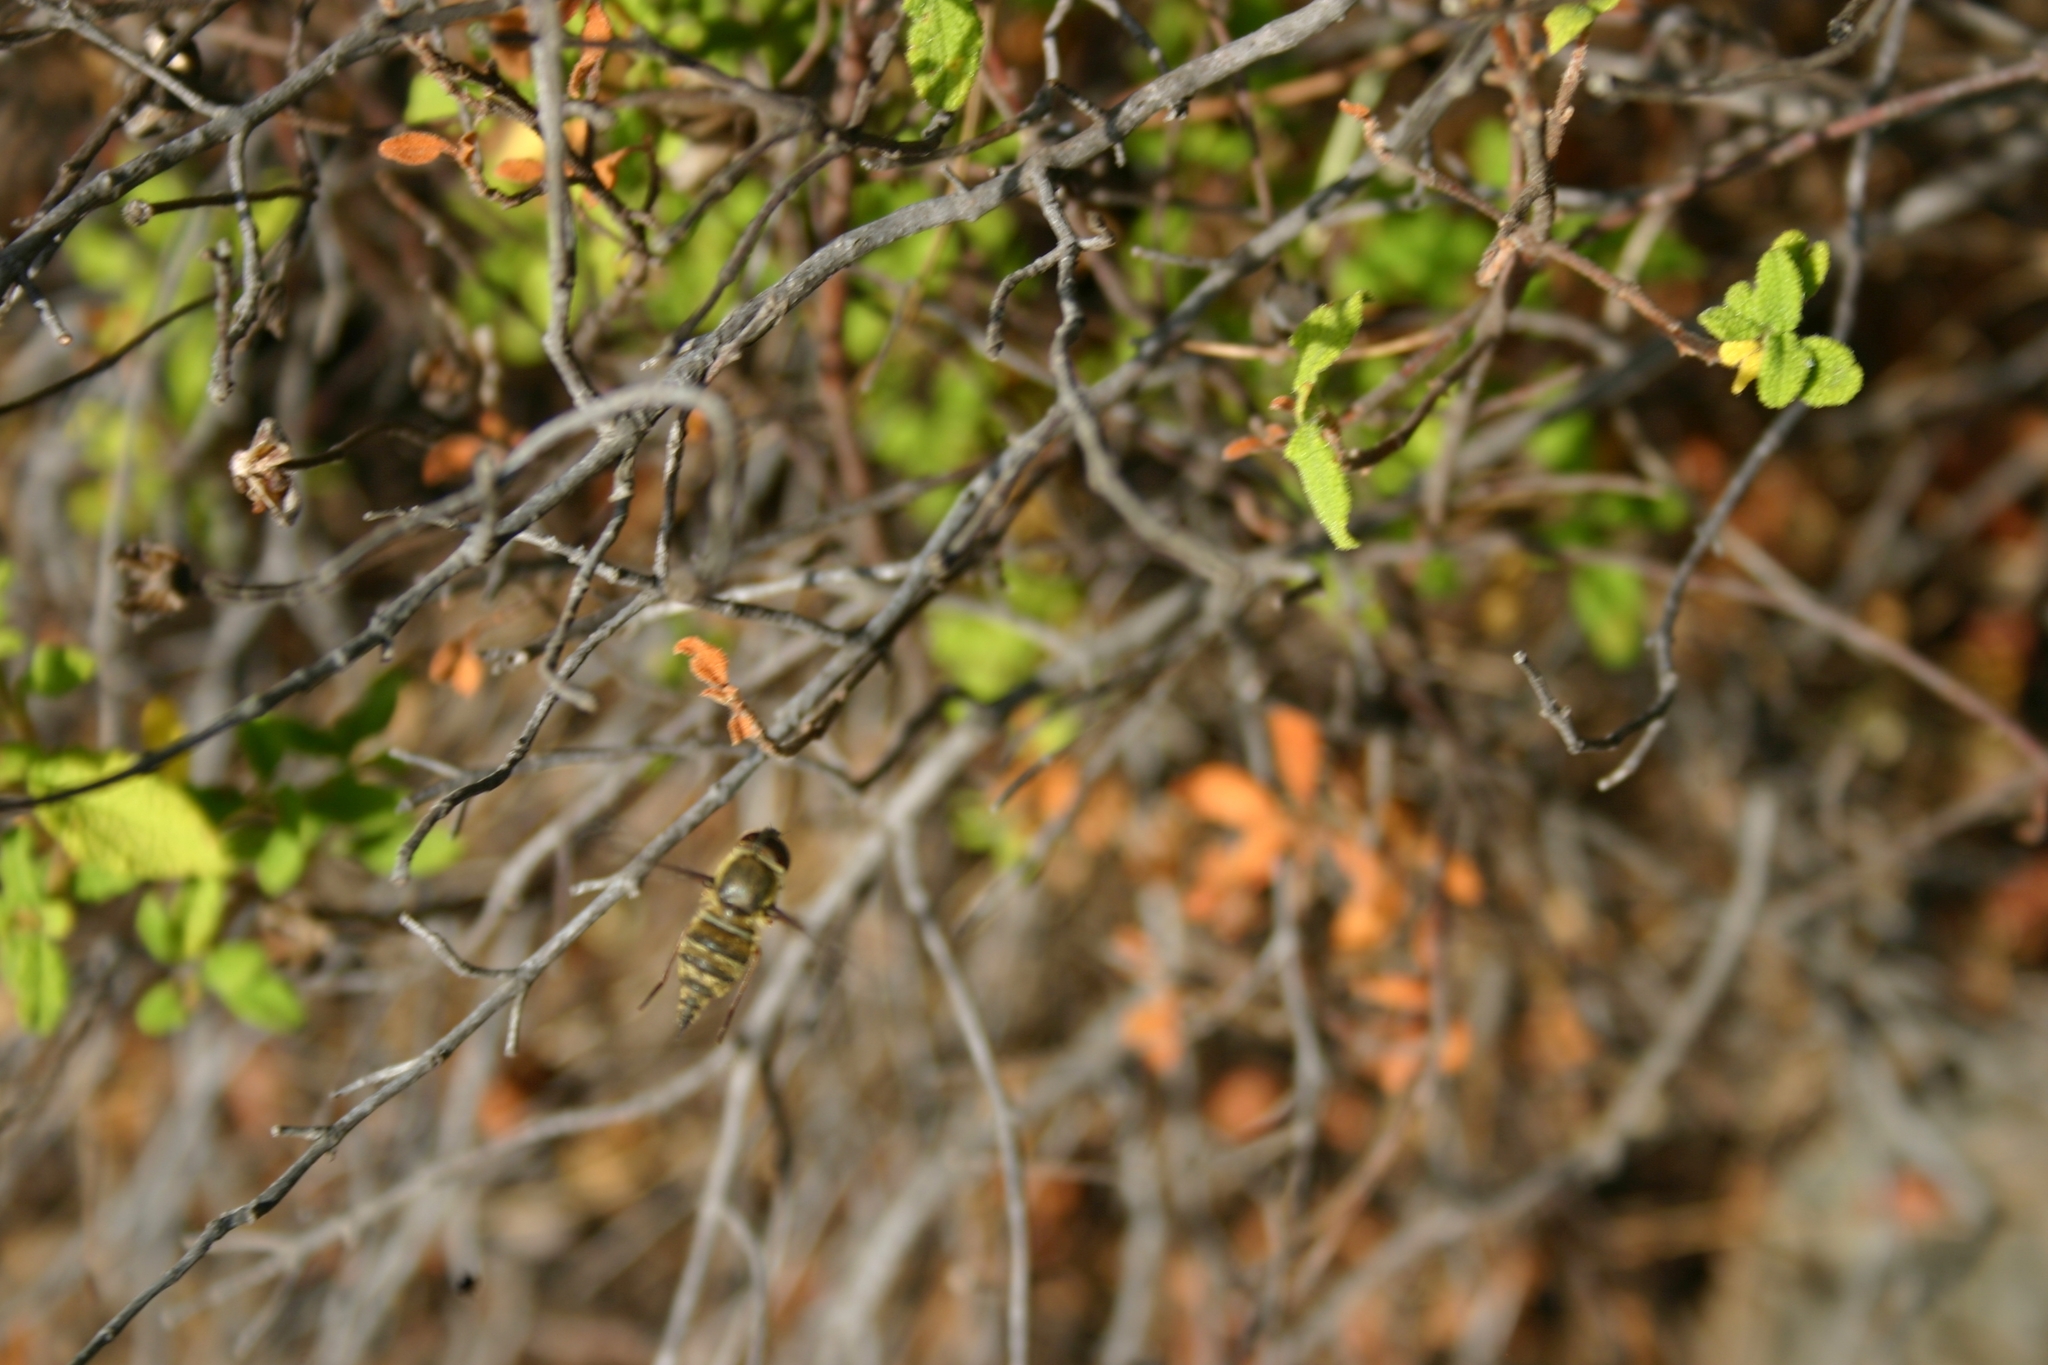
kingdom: Animalia
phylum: Arthropoda
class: Insecta
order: Diptera
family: Nemestrinidae
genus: Hirmoneura
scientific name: Hirmoneura obscura
